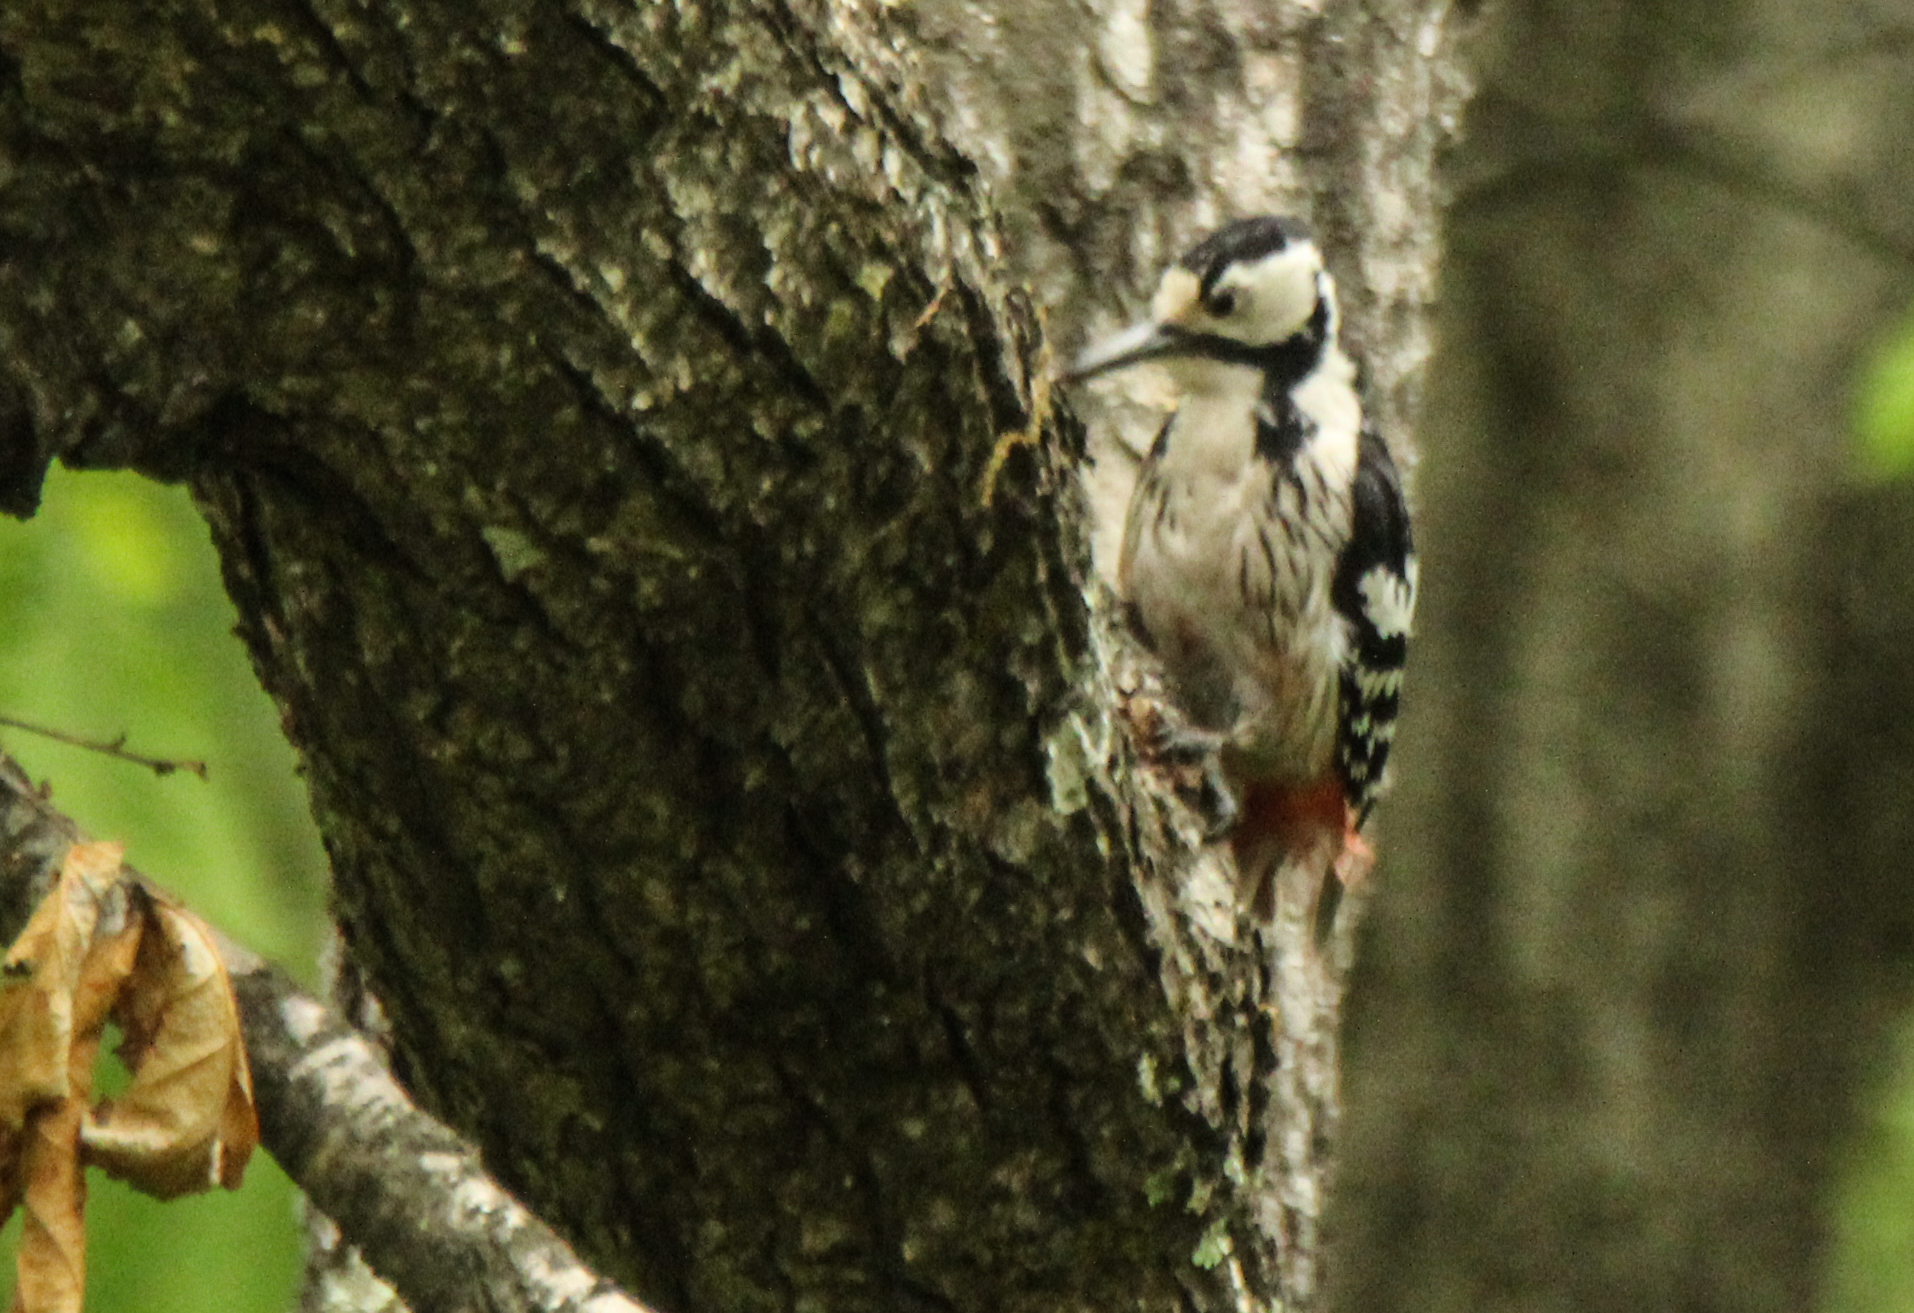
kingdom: Animalia
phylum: Chordata
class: Aves
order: Piciformes
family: Picidae
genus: Dendrocopos
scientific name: Dendrocopos leucotos
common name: White-backed woodpecker
